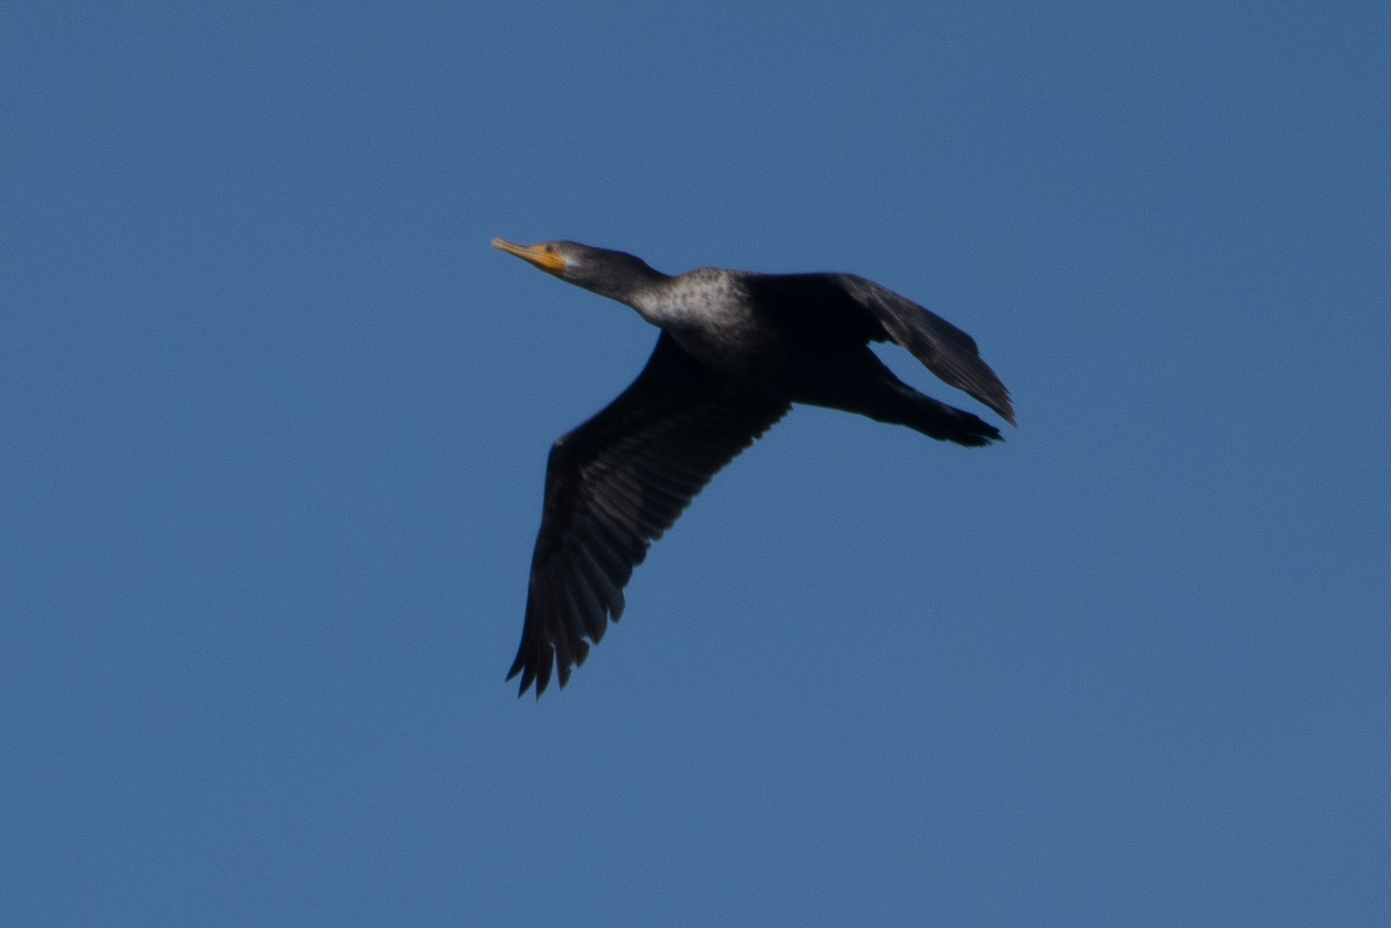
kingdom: Animalia
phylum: Chordata
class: Aves
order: Suliformes
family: Phalacrocoracidae
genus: Phalacrocorax
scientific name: Phalacrocorax auritus
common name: Double-crested cormorant
